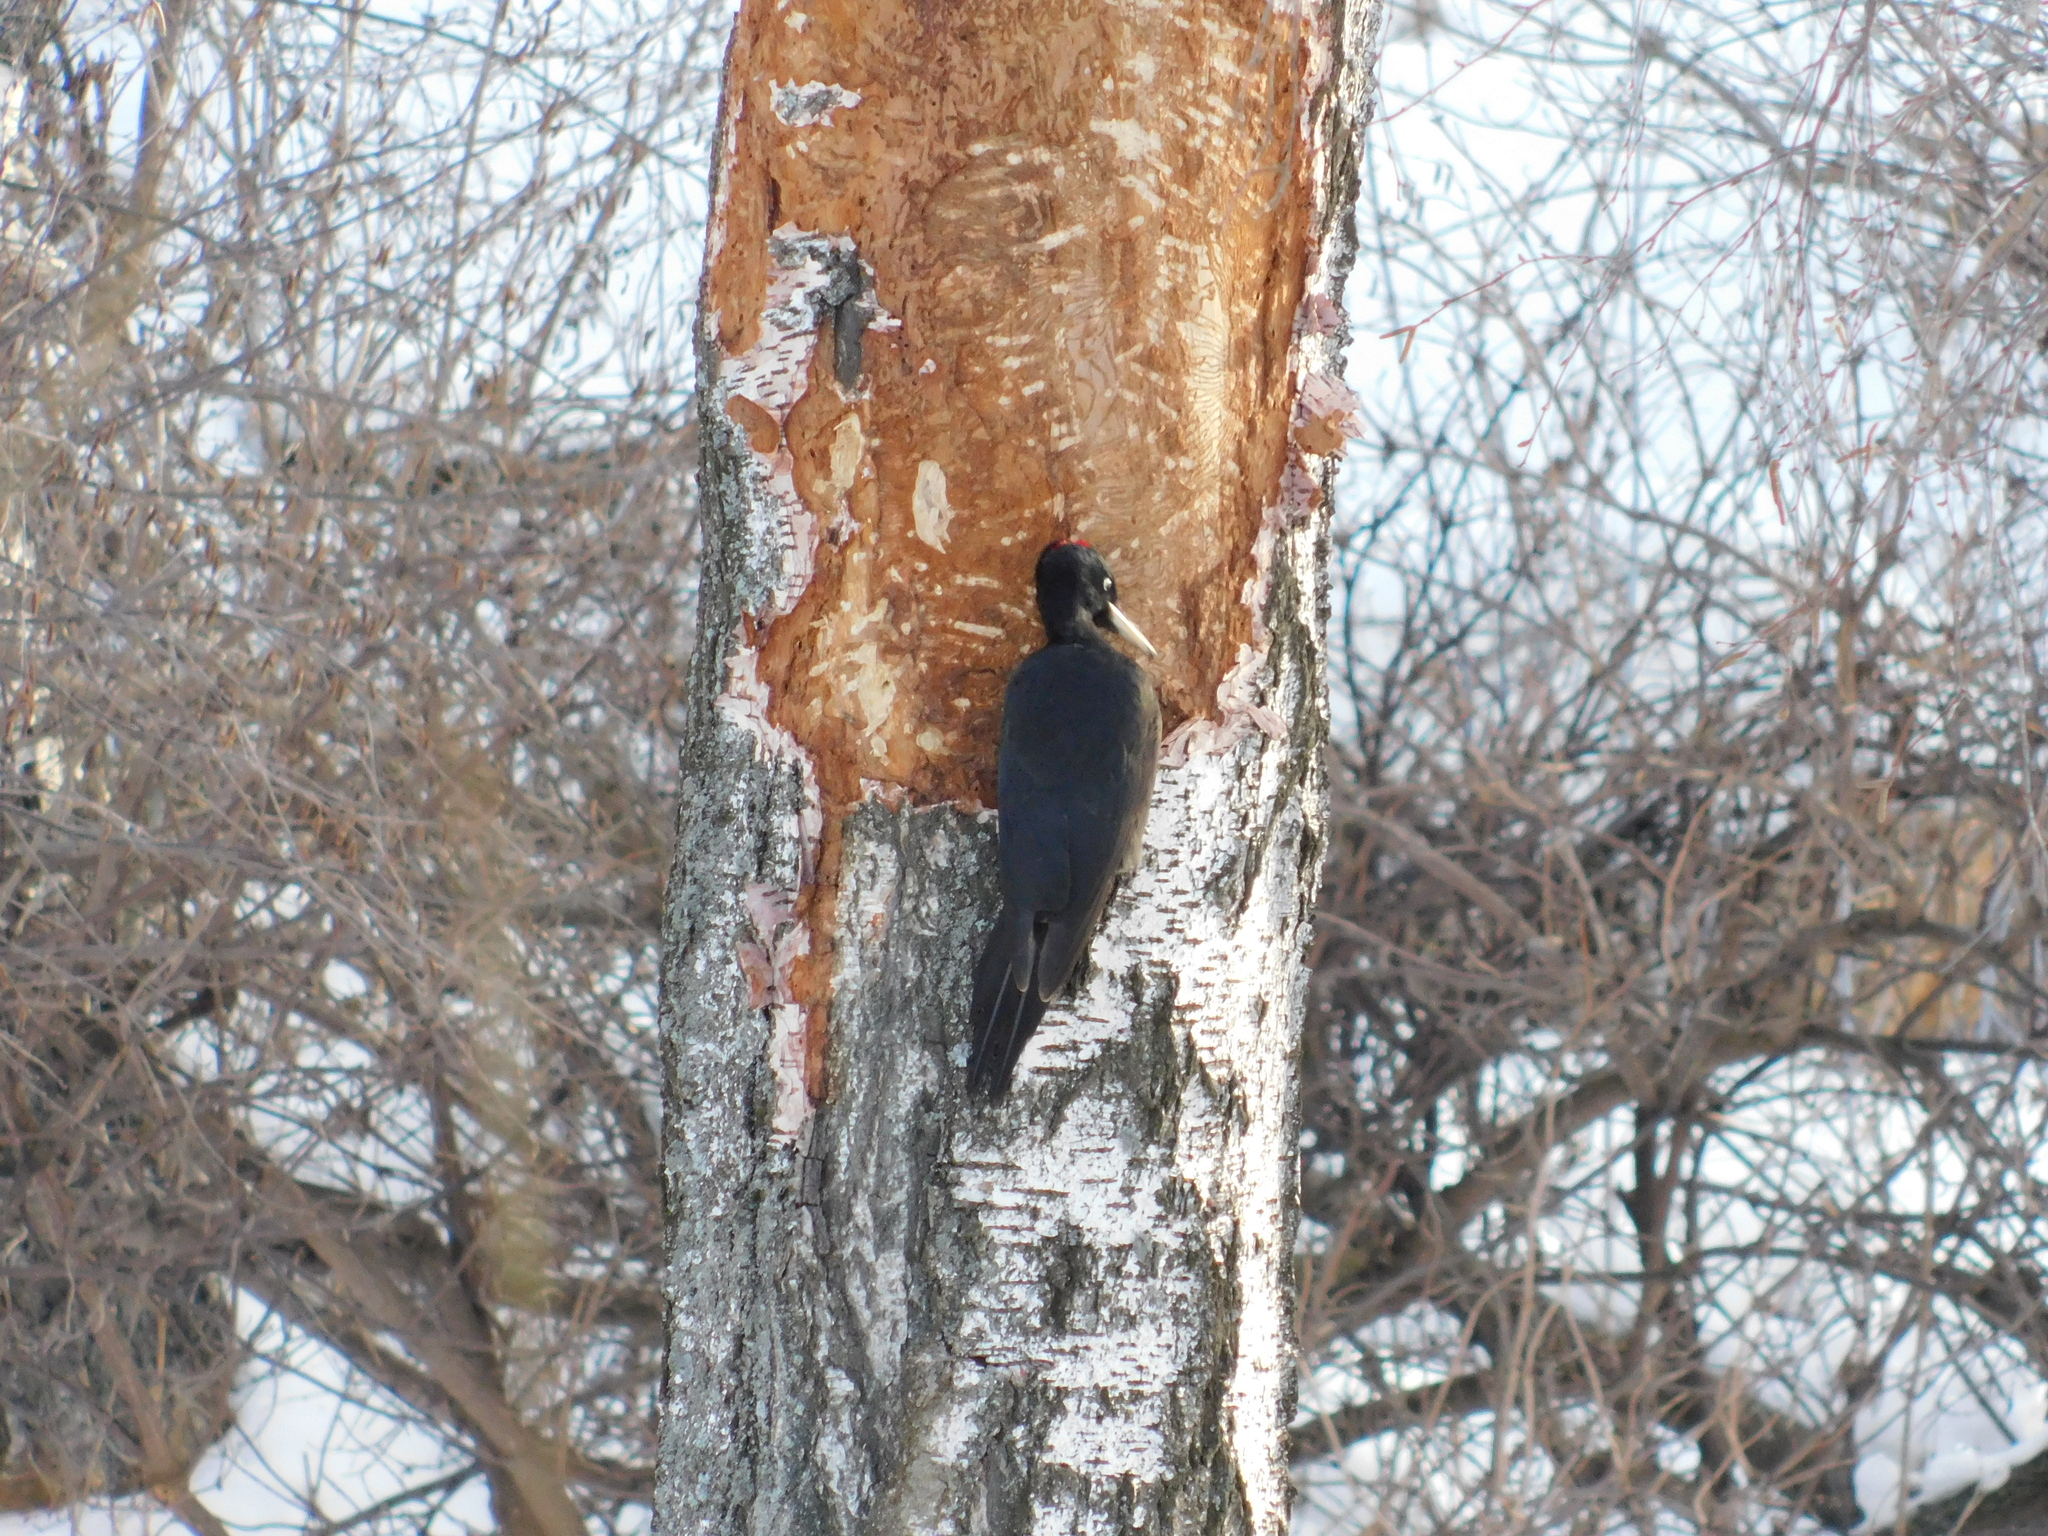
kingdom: Animalia
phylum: Chordata
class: Aves
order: Piciformes
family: Picidae
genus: Dryocopus
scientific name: Dryocopus martius
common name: Black woodpecker
